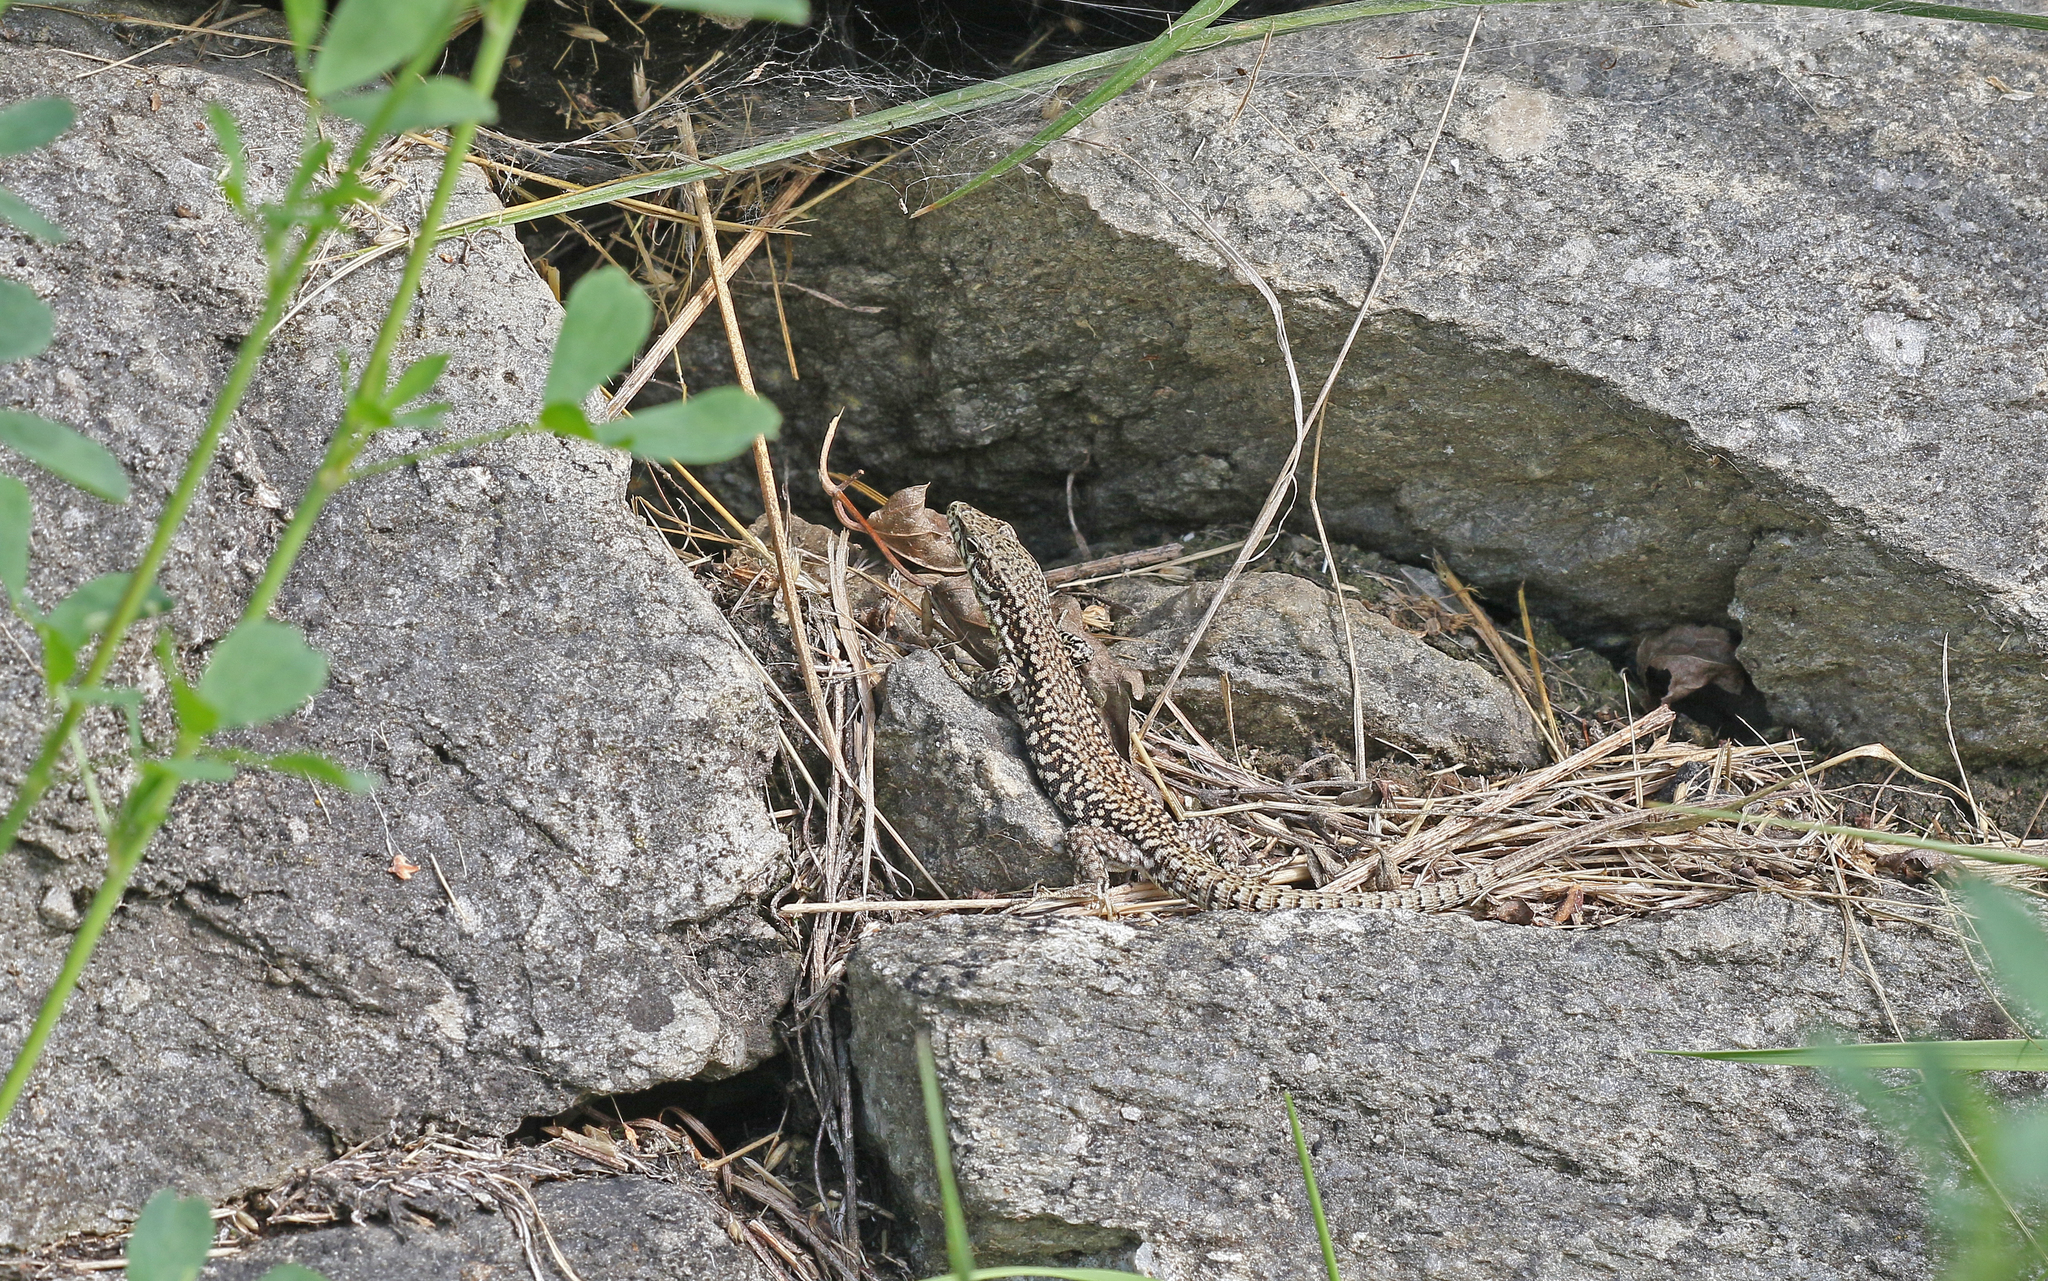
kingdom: Animalia
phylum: Chordata
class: Squamata
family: Lacertidae
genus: Podarcis
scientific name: Podarcis muralis
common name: Common wall lizard
